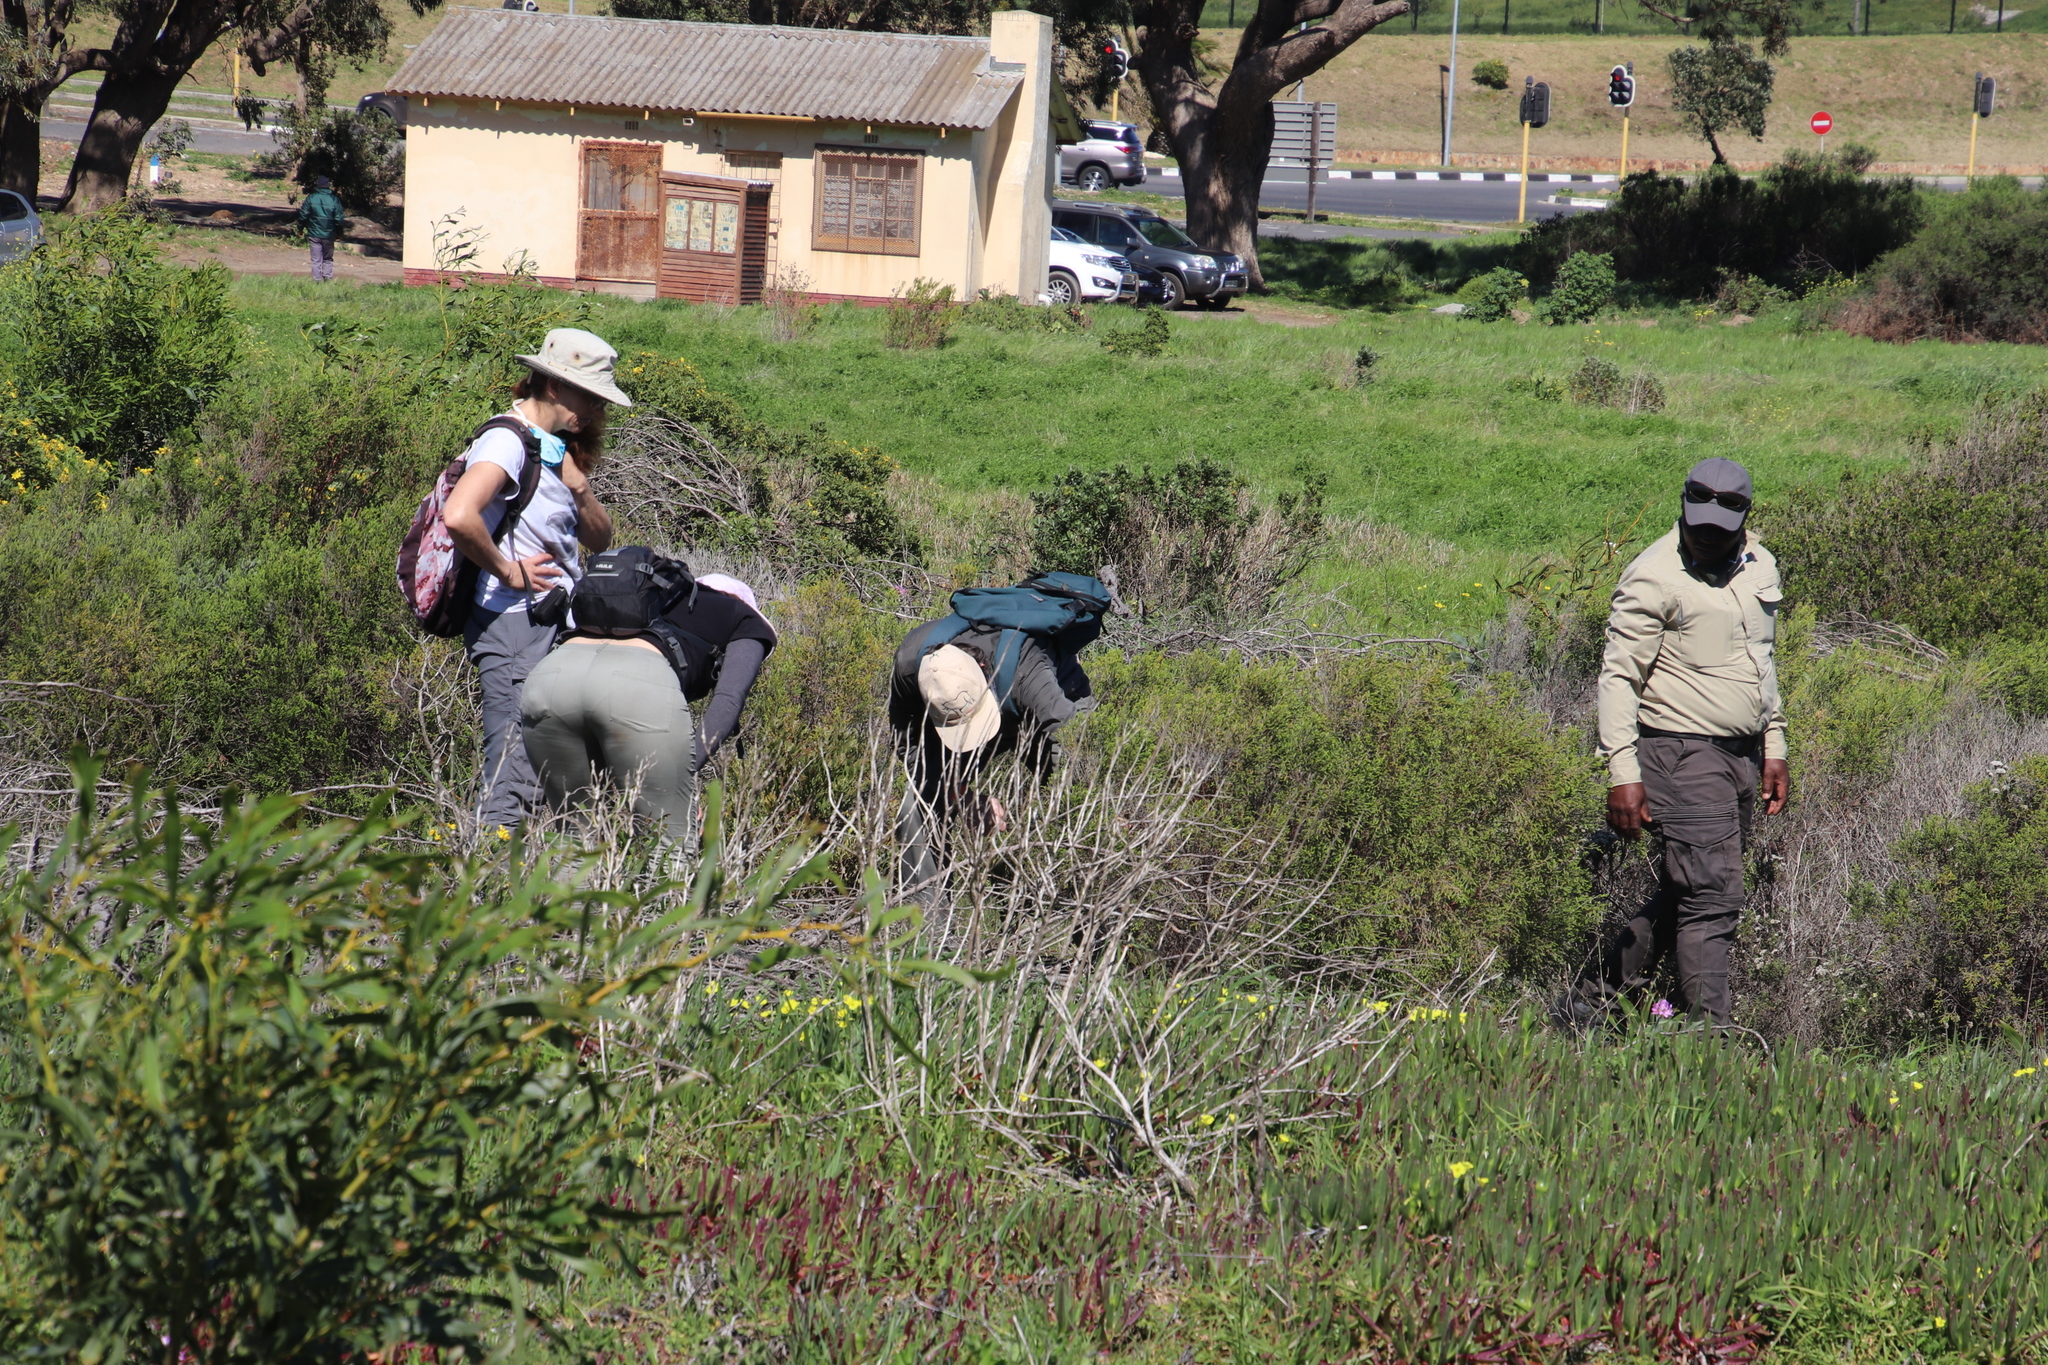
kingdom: Plantae
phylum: Tracheophyta
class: Magnoliopsida
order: Oxalidales
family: Oxalidaceae
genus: Oxalis
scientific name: Oxalis pes-caprae
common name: Bermuda-buttercup
